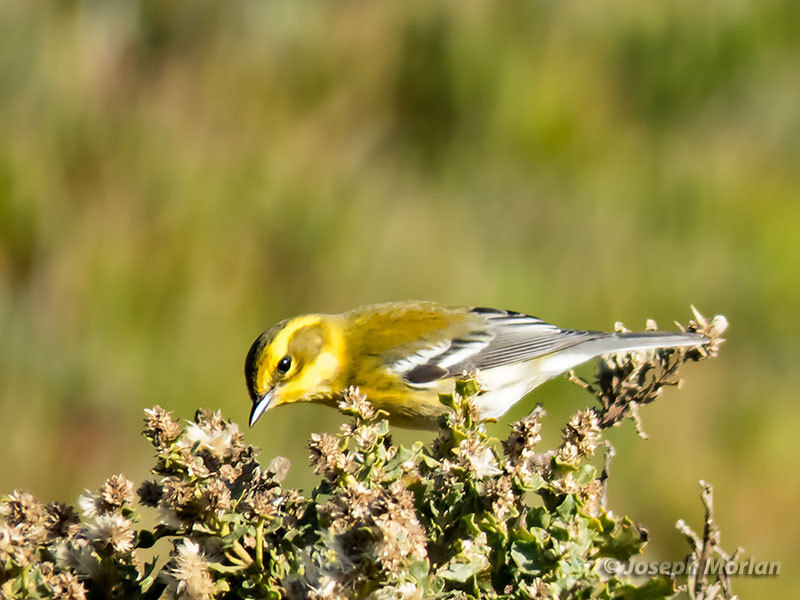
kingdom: Animalia
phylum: Chordata
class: Aves
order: Passeriformes
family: Parulidae
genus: Setophaga
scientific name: Setophaga townsendi
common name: Townsend's warbler
